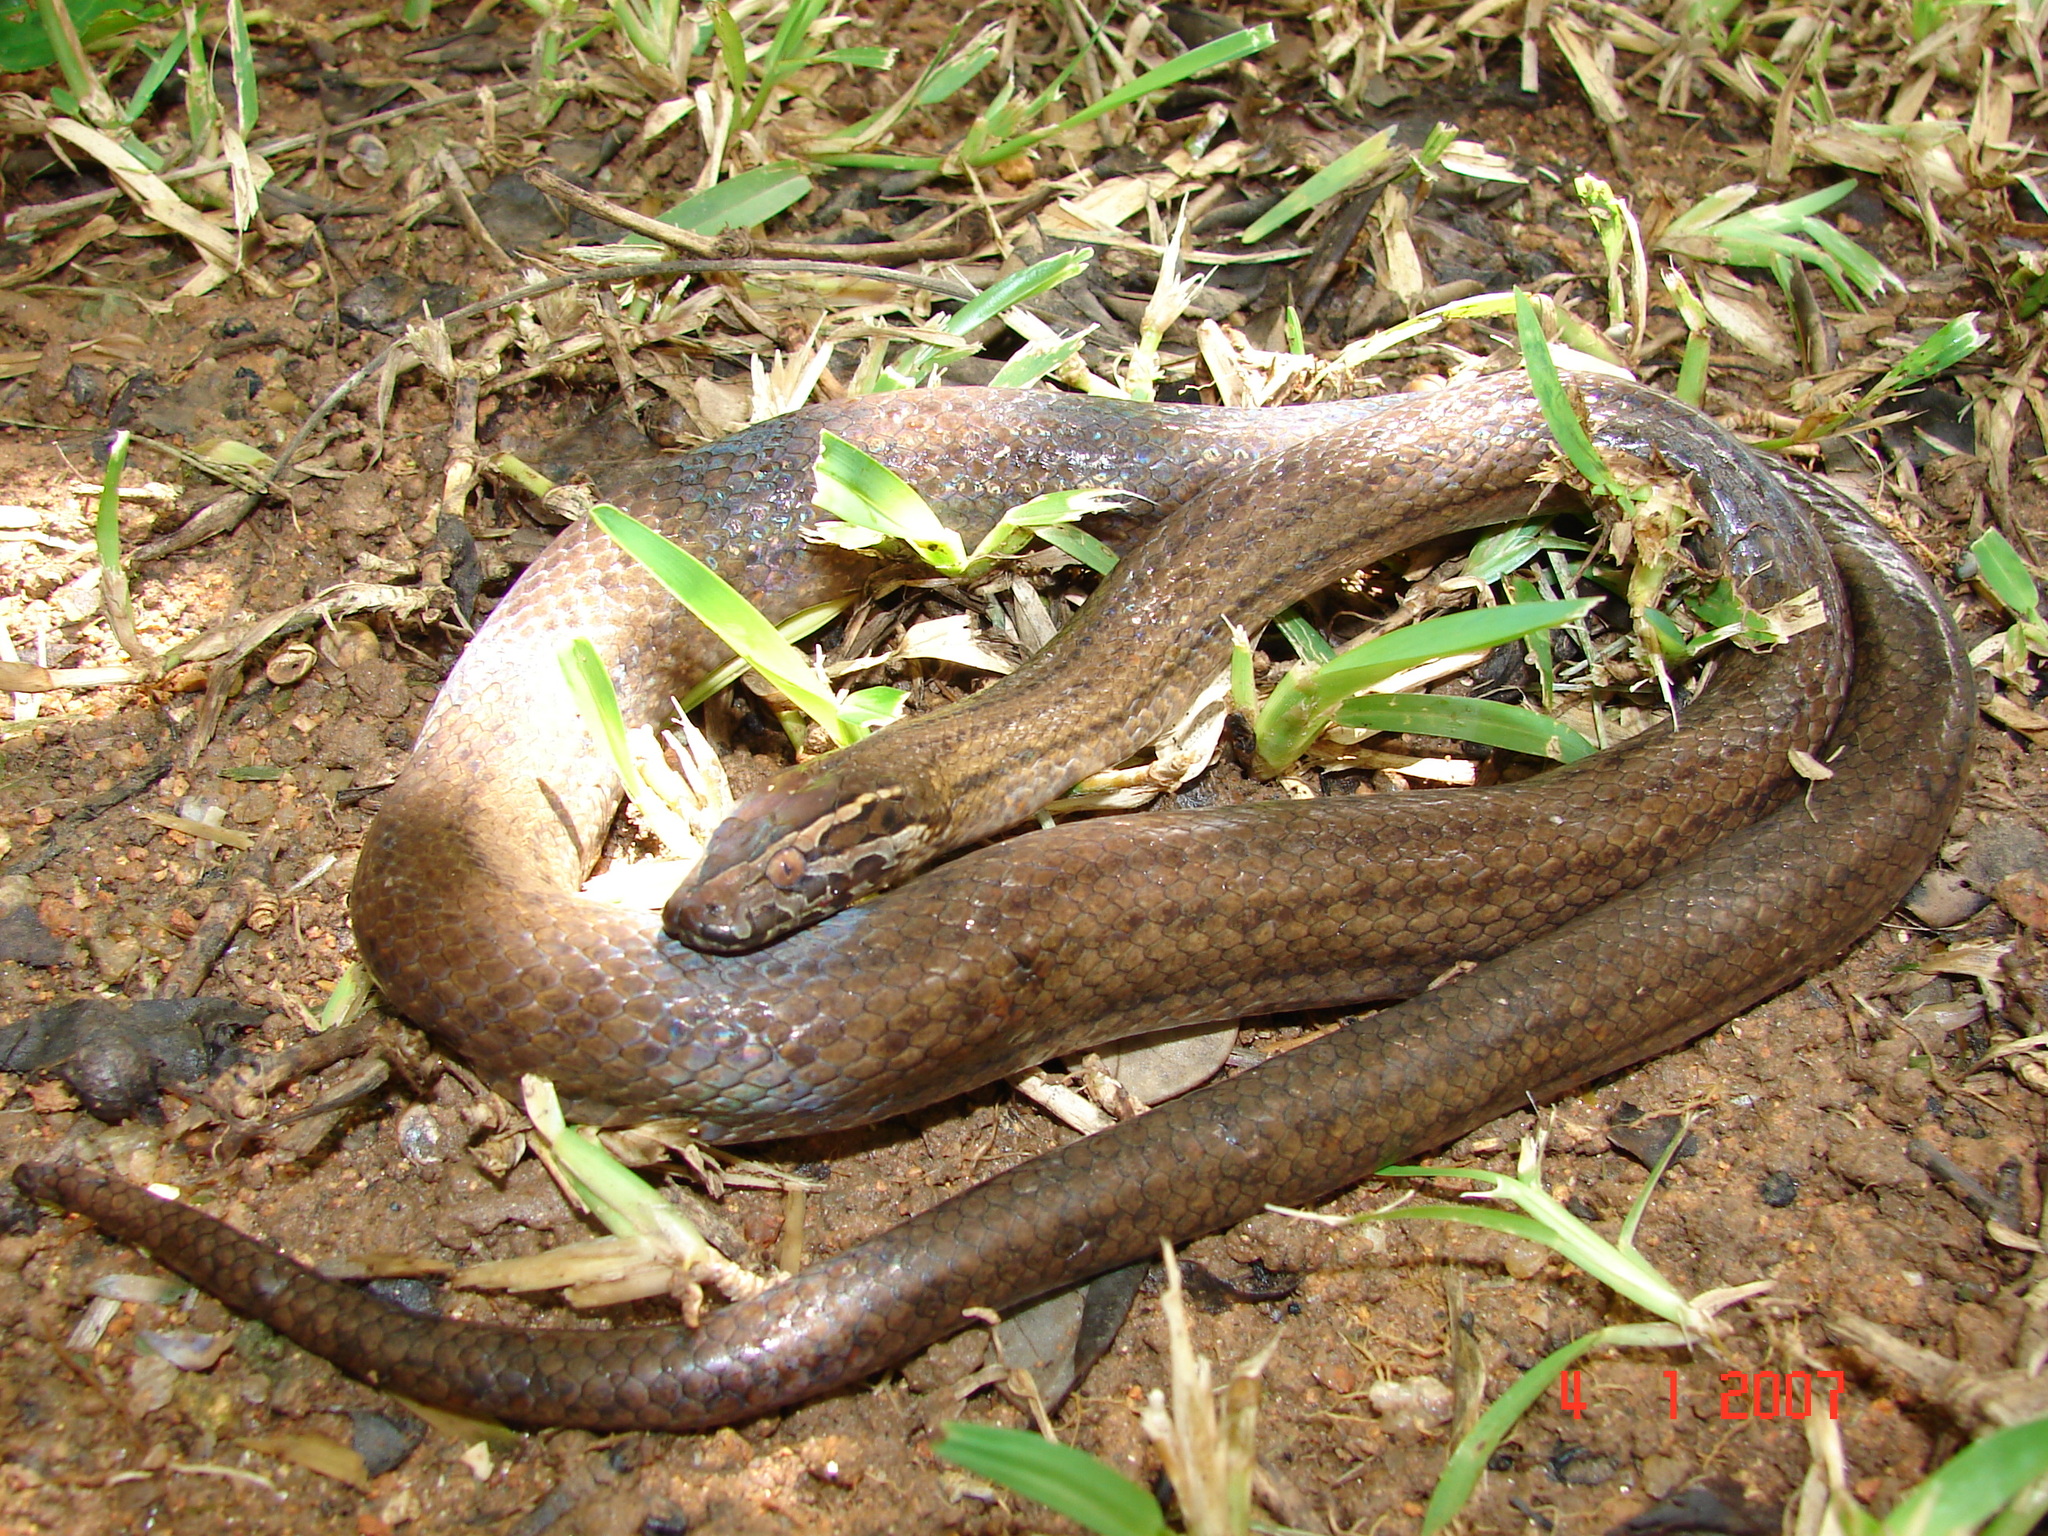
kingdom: Animalia
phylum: Chordata
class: Squamata
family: Lamprophiidae
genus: Boaedon
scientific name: Boaedon
